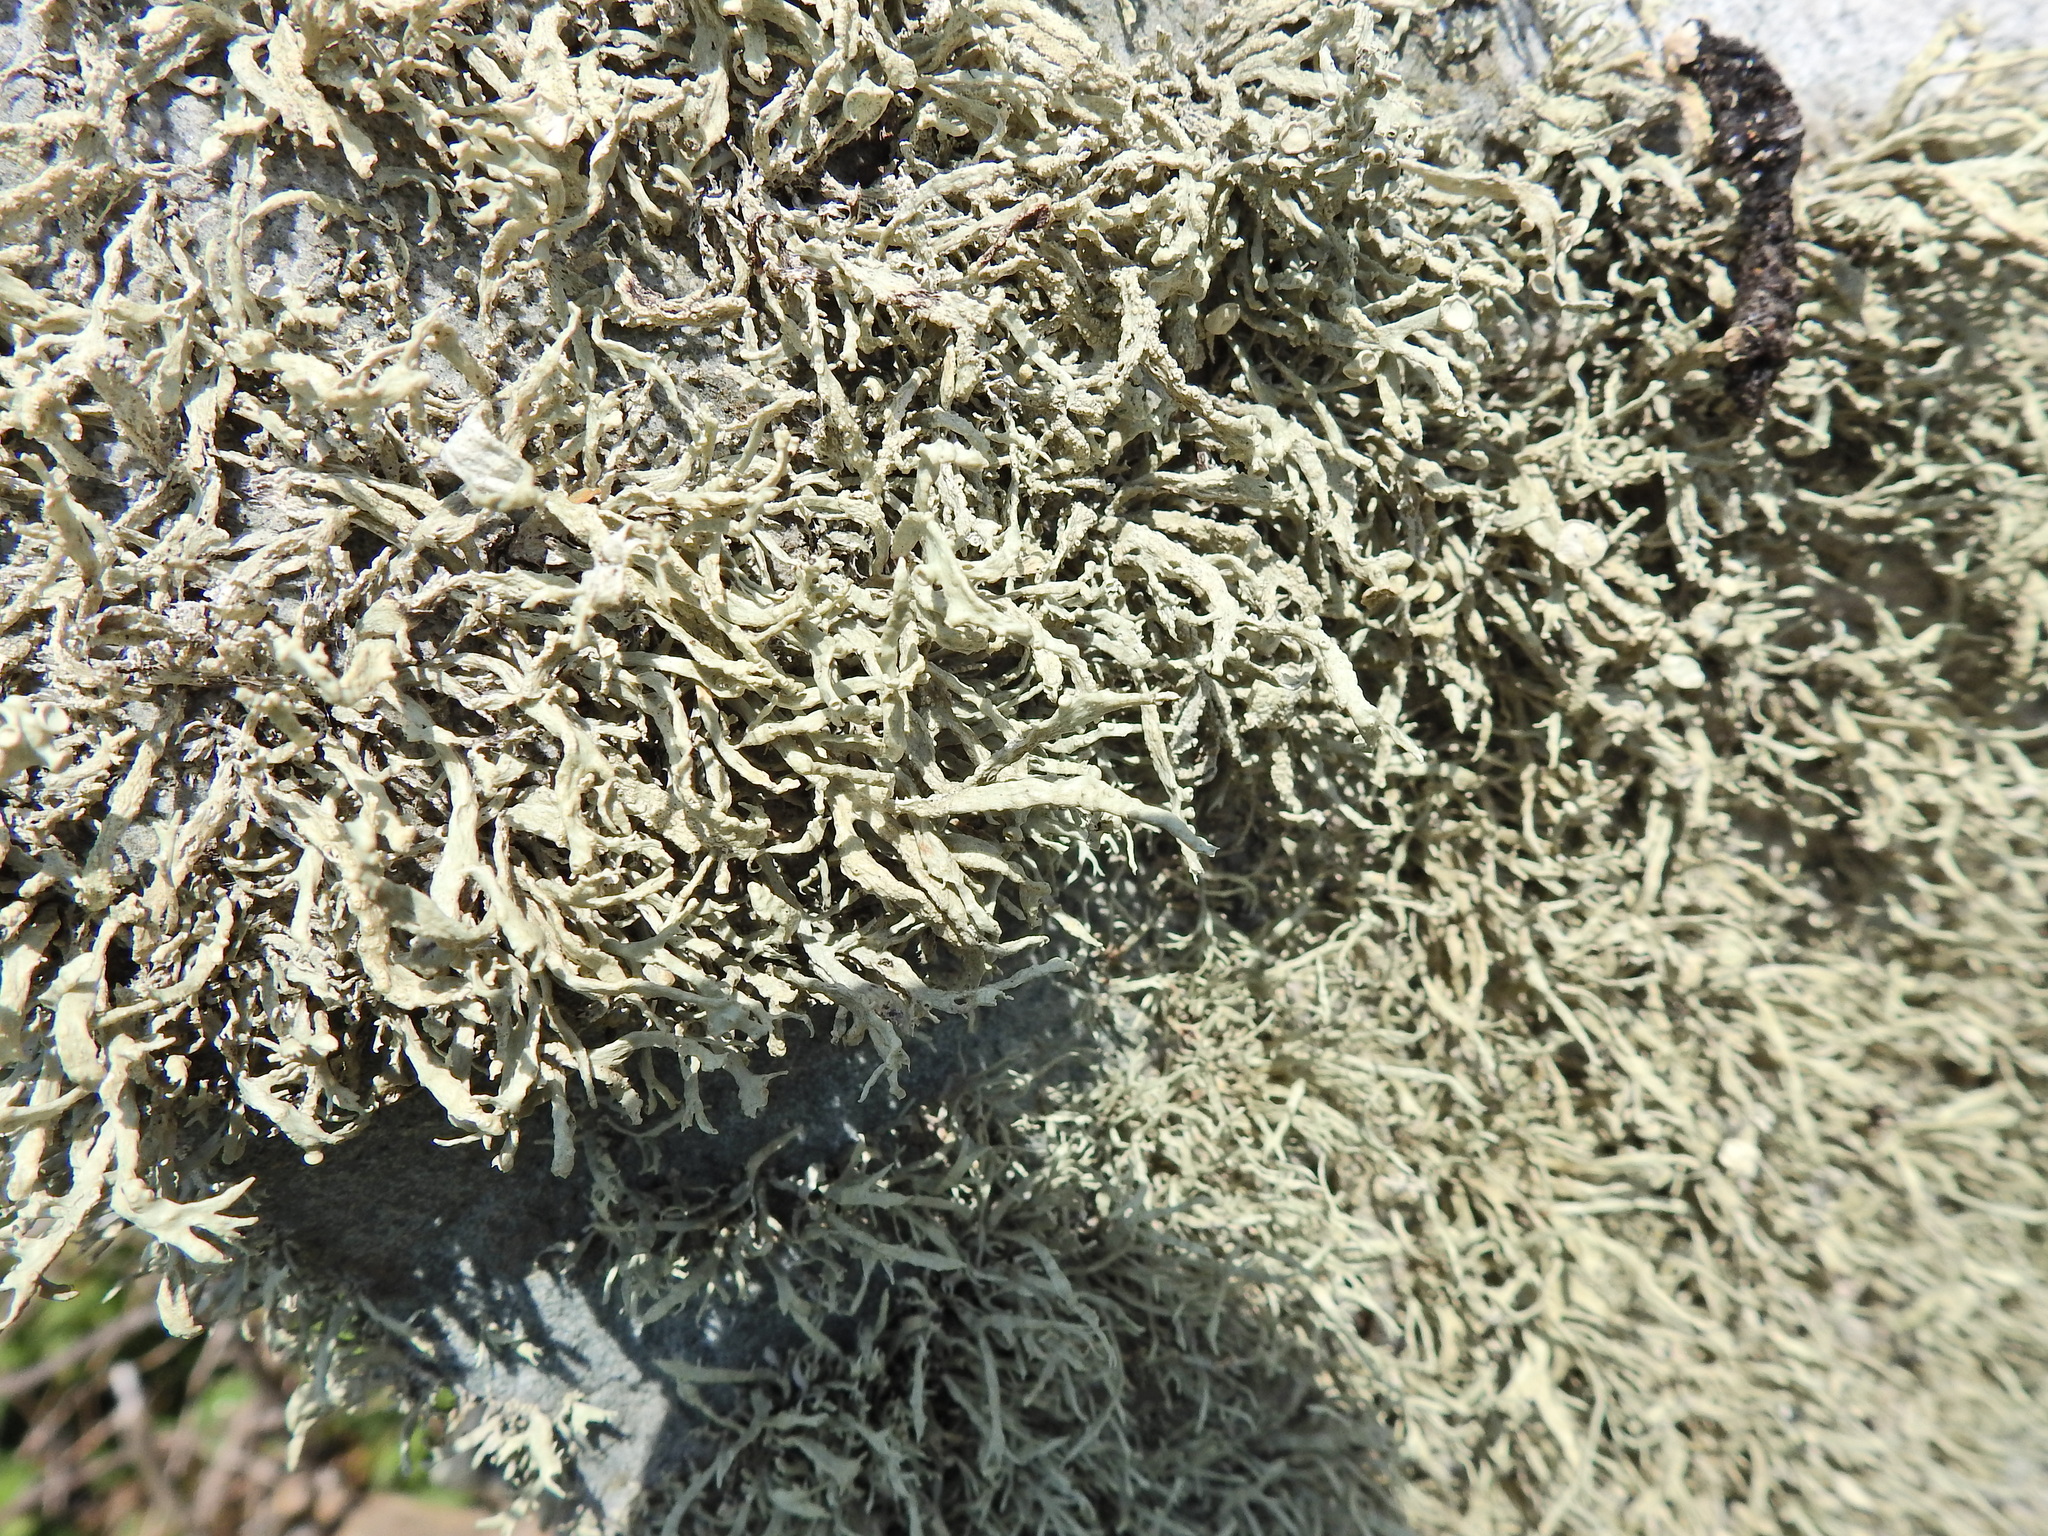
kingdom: Fungi
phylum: Ascomycota
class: Lecanoromycetes
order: Lecanorales
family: Ramalinaceae
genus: Ramalina
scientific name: Ramalina siliquosa
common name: Sea ivory
